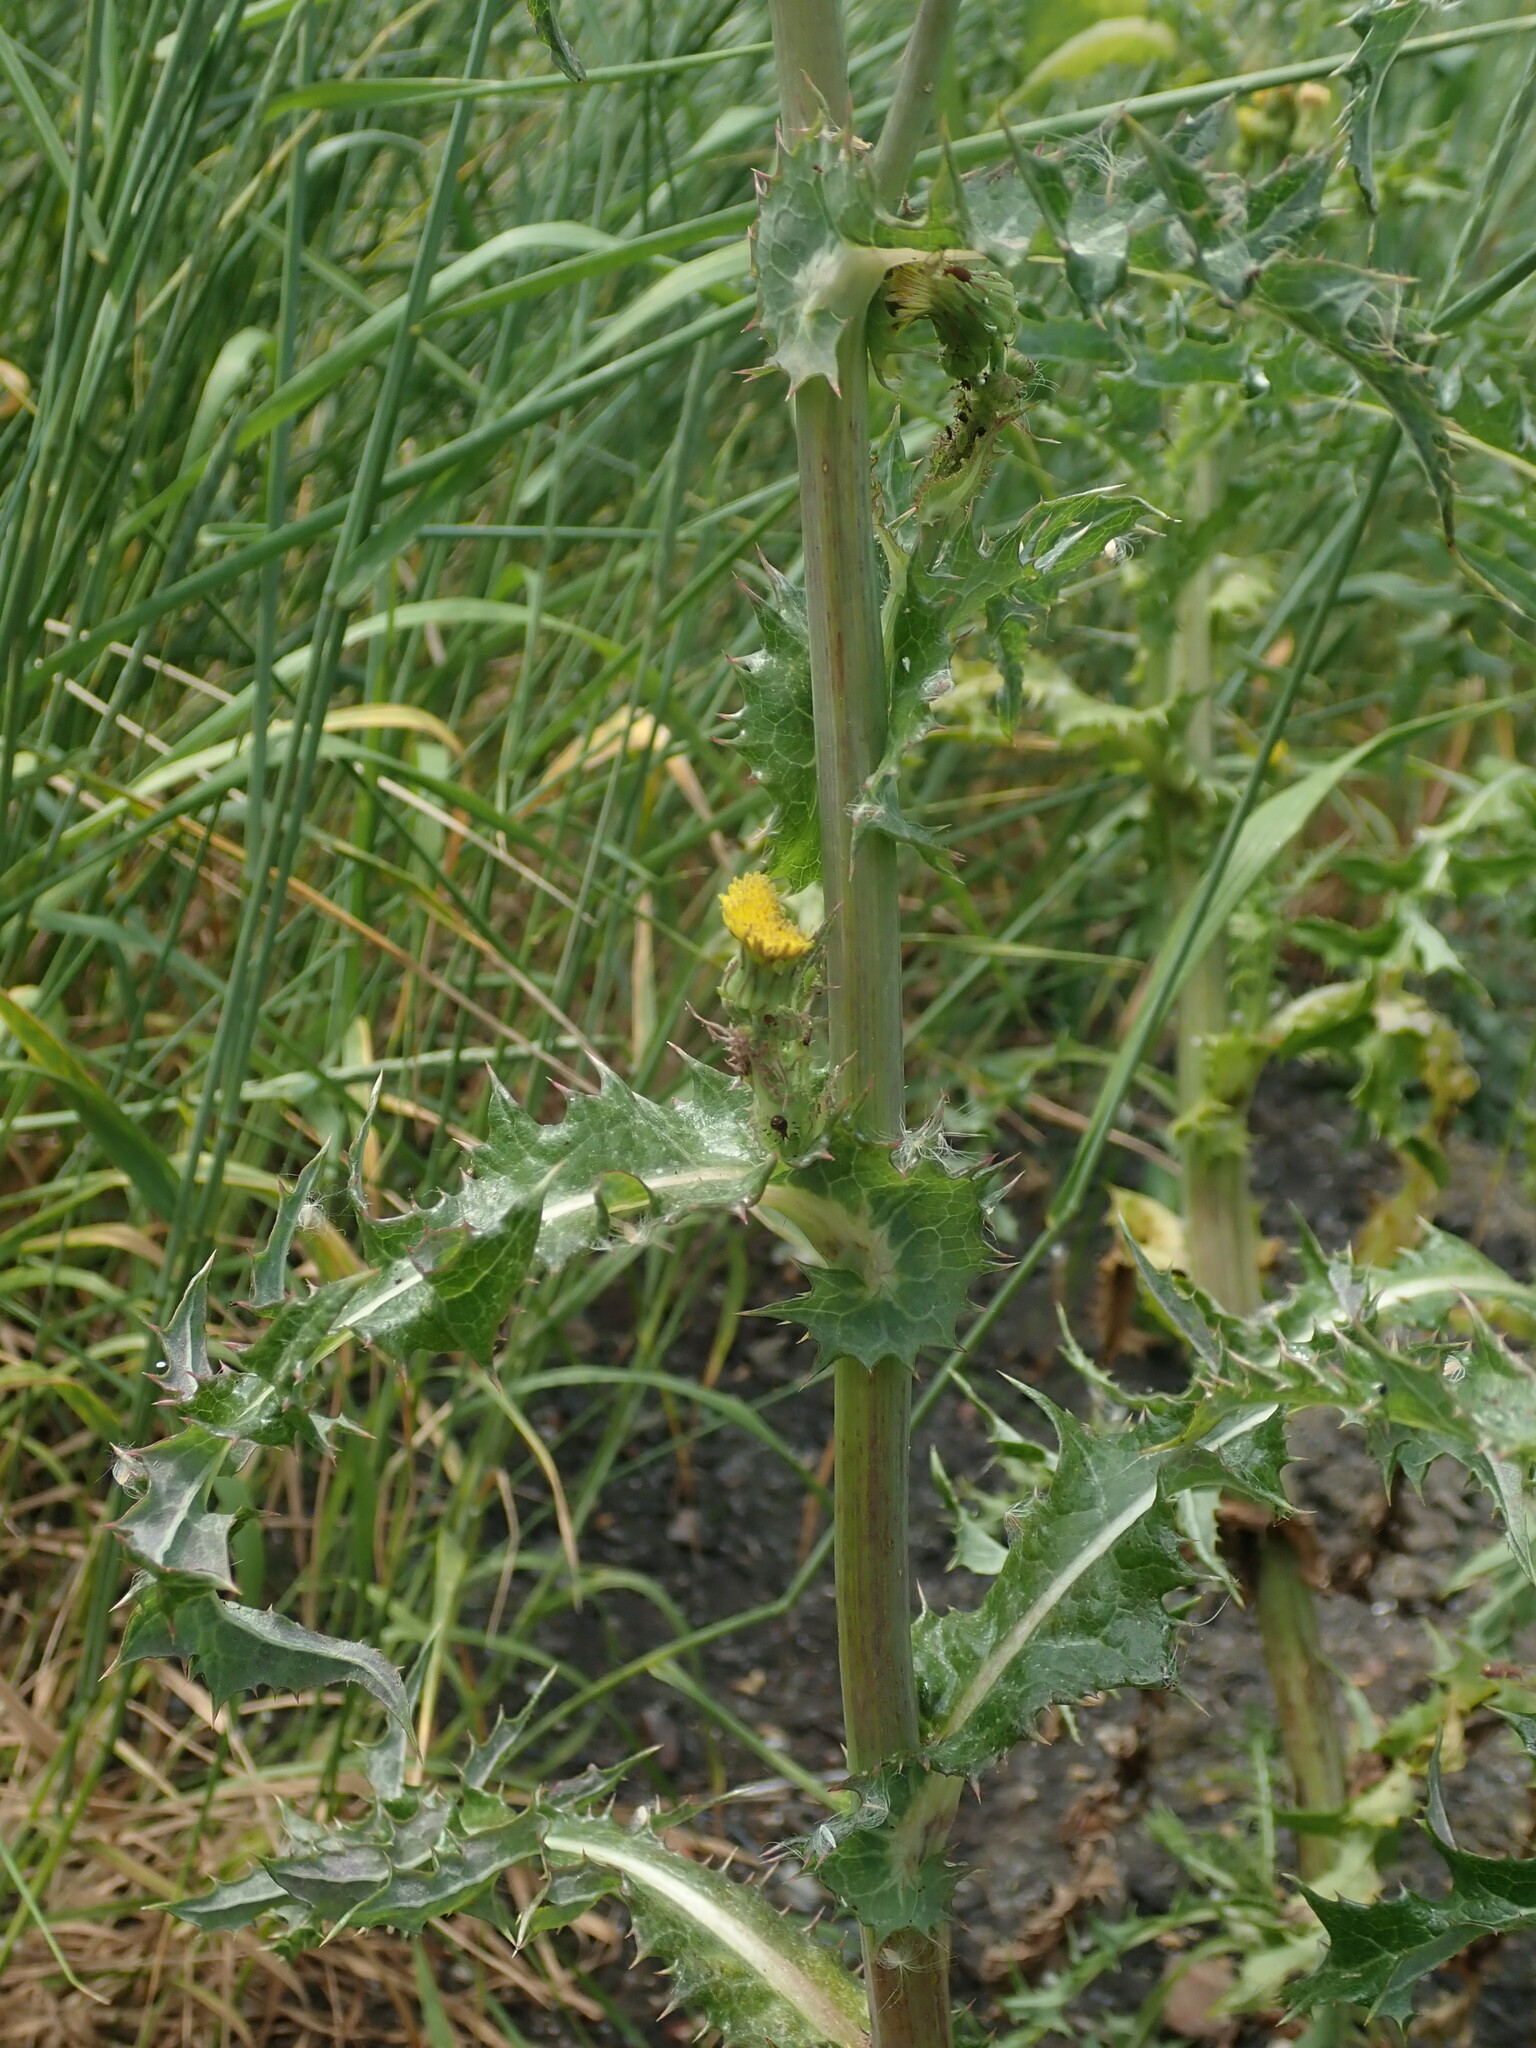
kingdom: Plantae
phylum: Tracheophyta
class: Magnoliopsida
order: Asterales
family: Asteraceae
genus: Sonchus
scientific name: Sonchus asper
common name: Prickly sow-thistle
